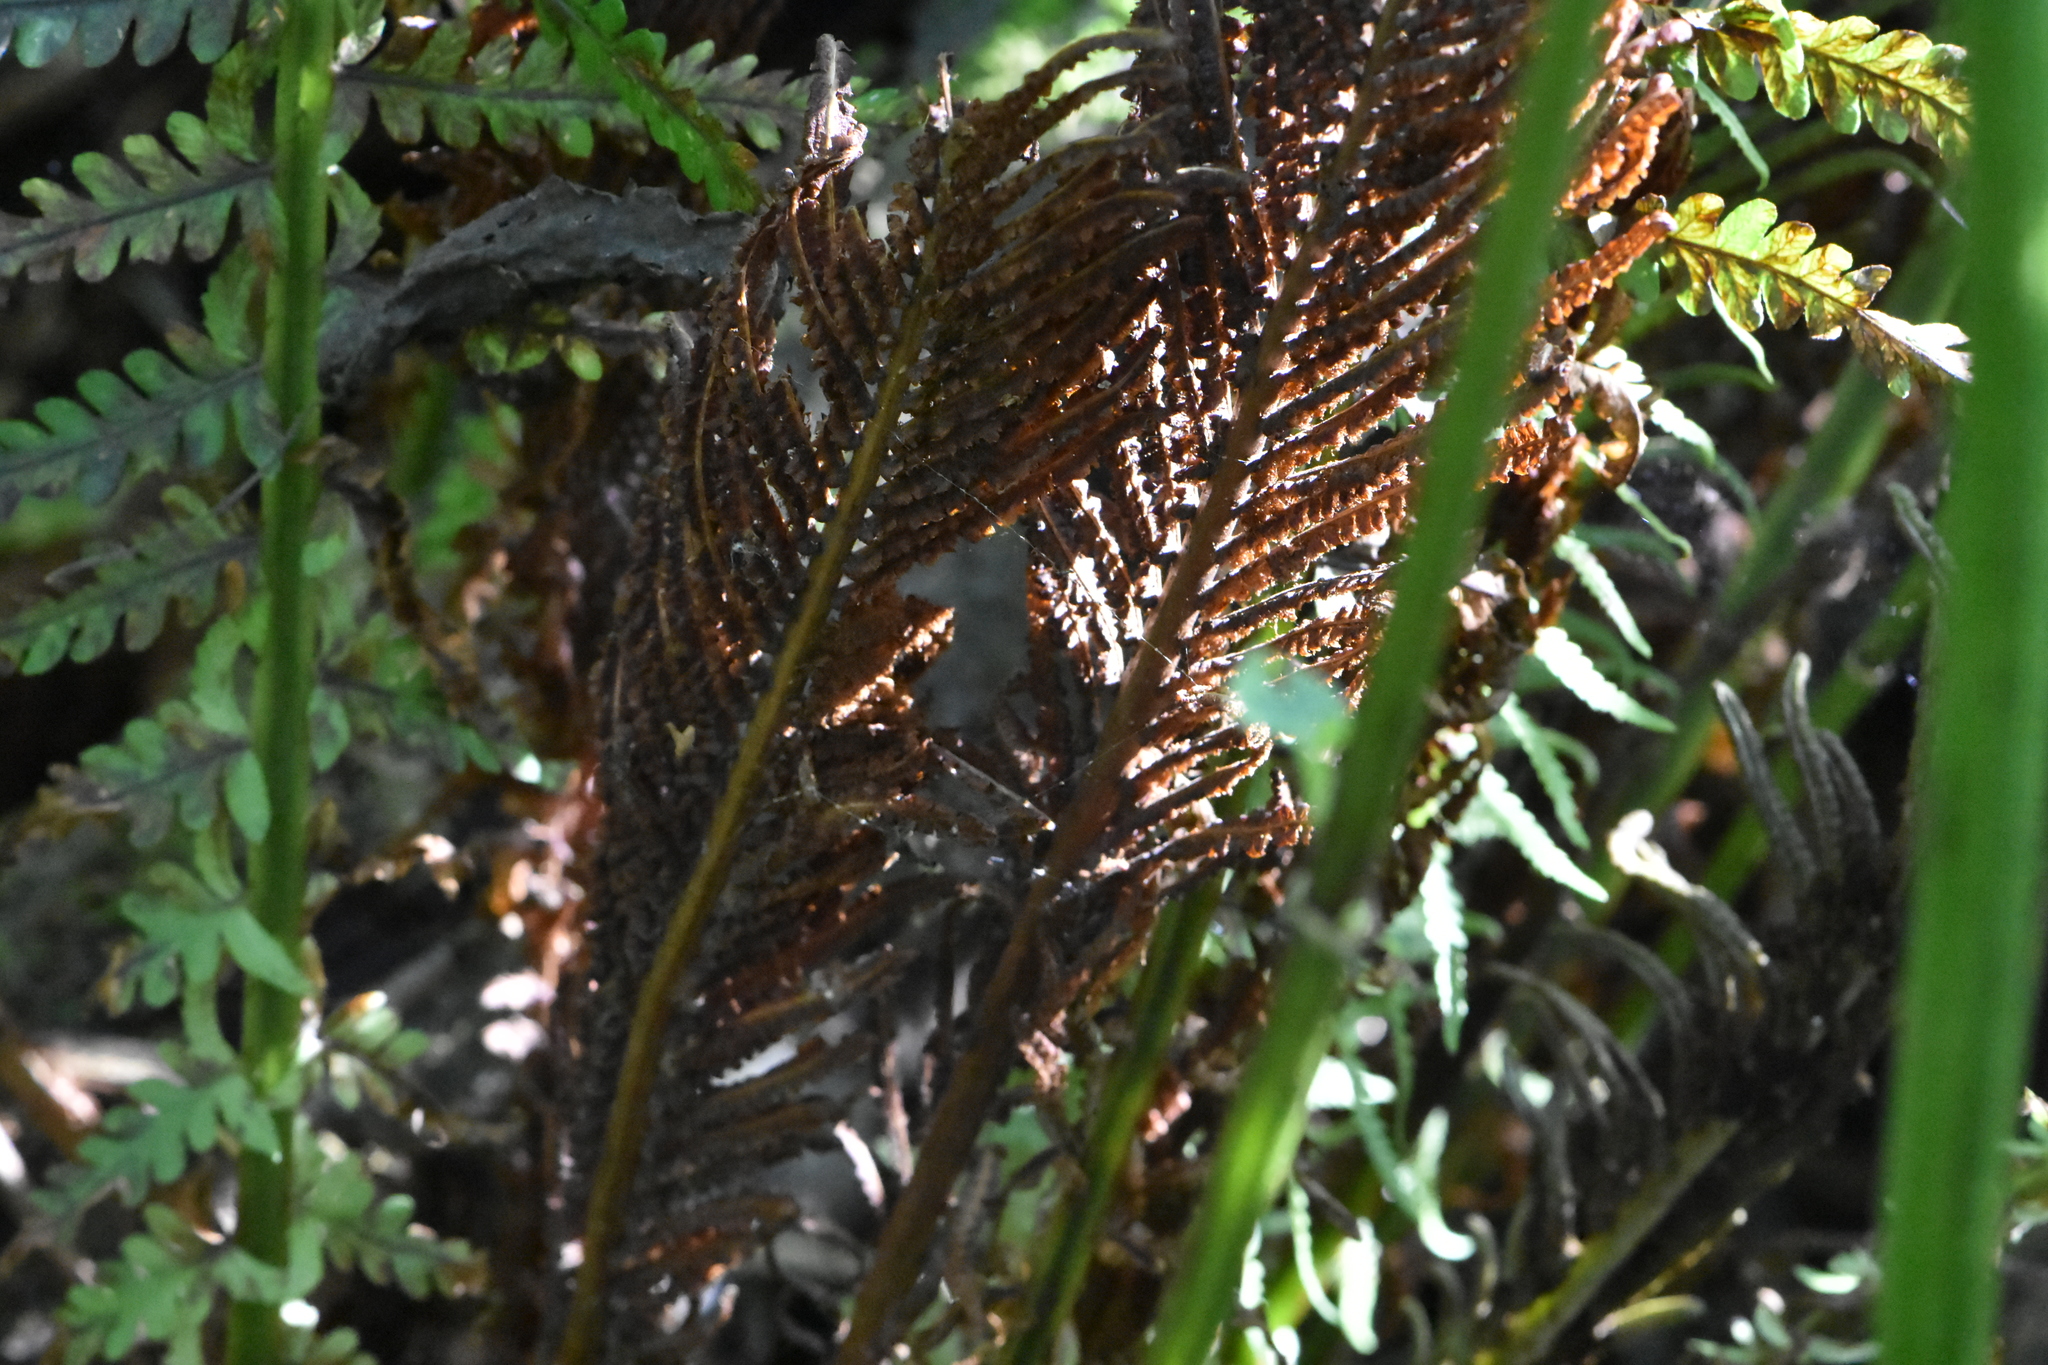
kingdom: Plantae
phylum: Tracheophyta
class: Polypodiopsida
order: Polypodiales
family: Onocleaceae
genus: Matteuccia
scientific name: Matteuccia struthiopteris
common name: Ostrich fern
